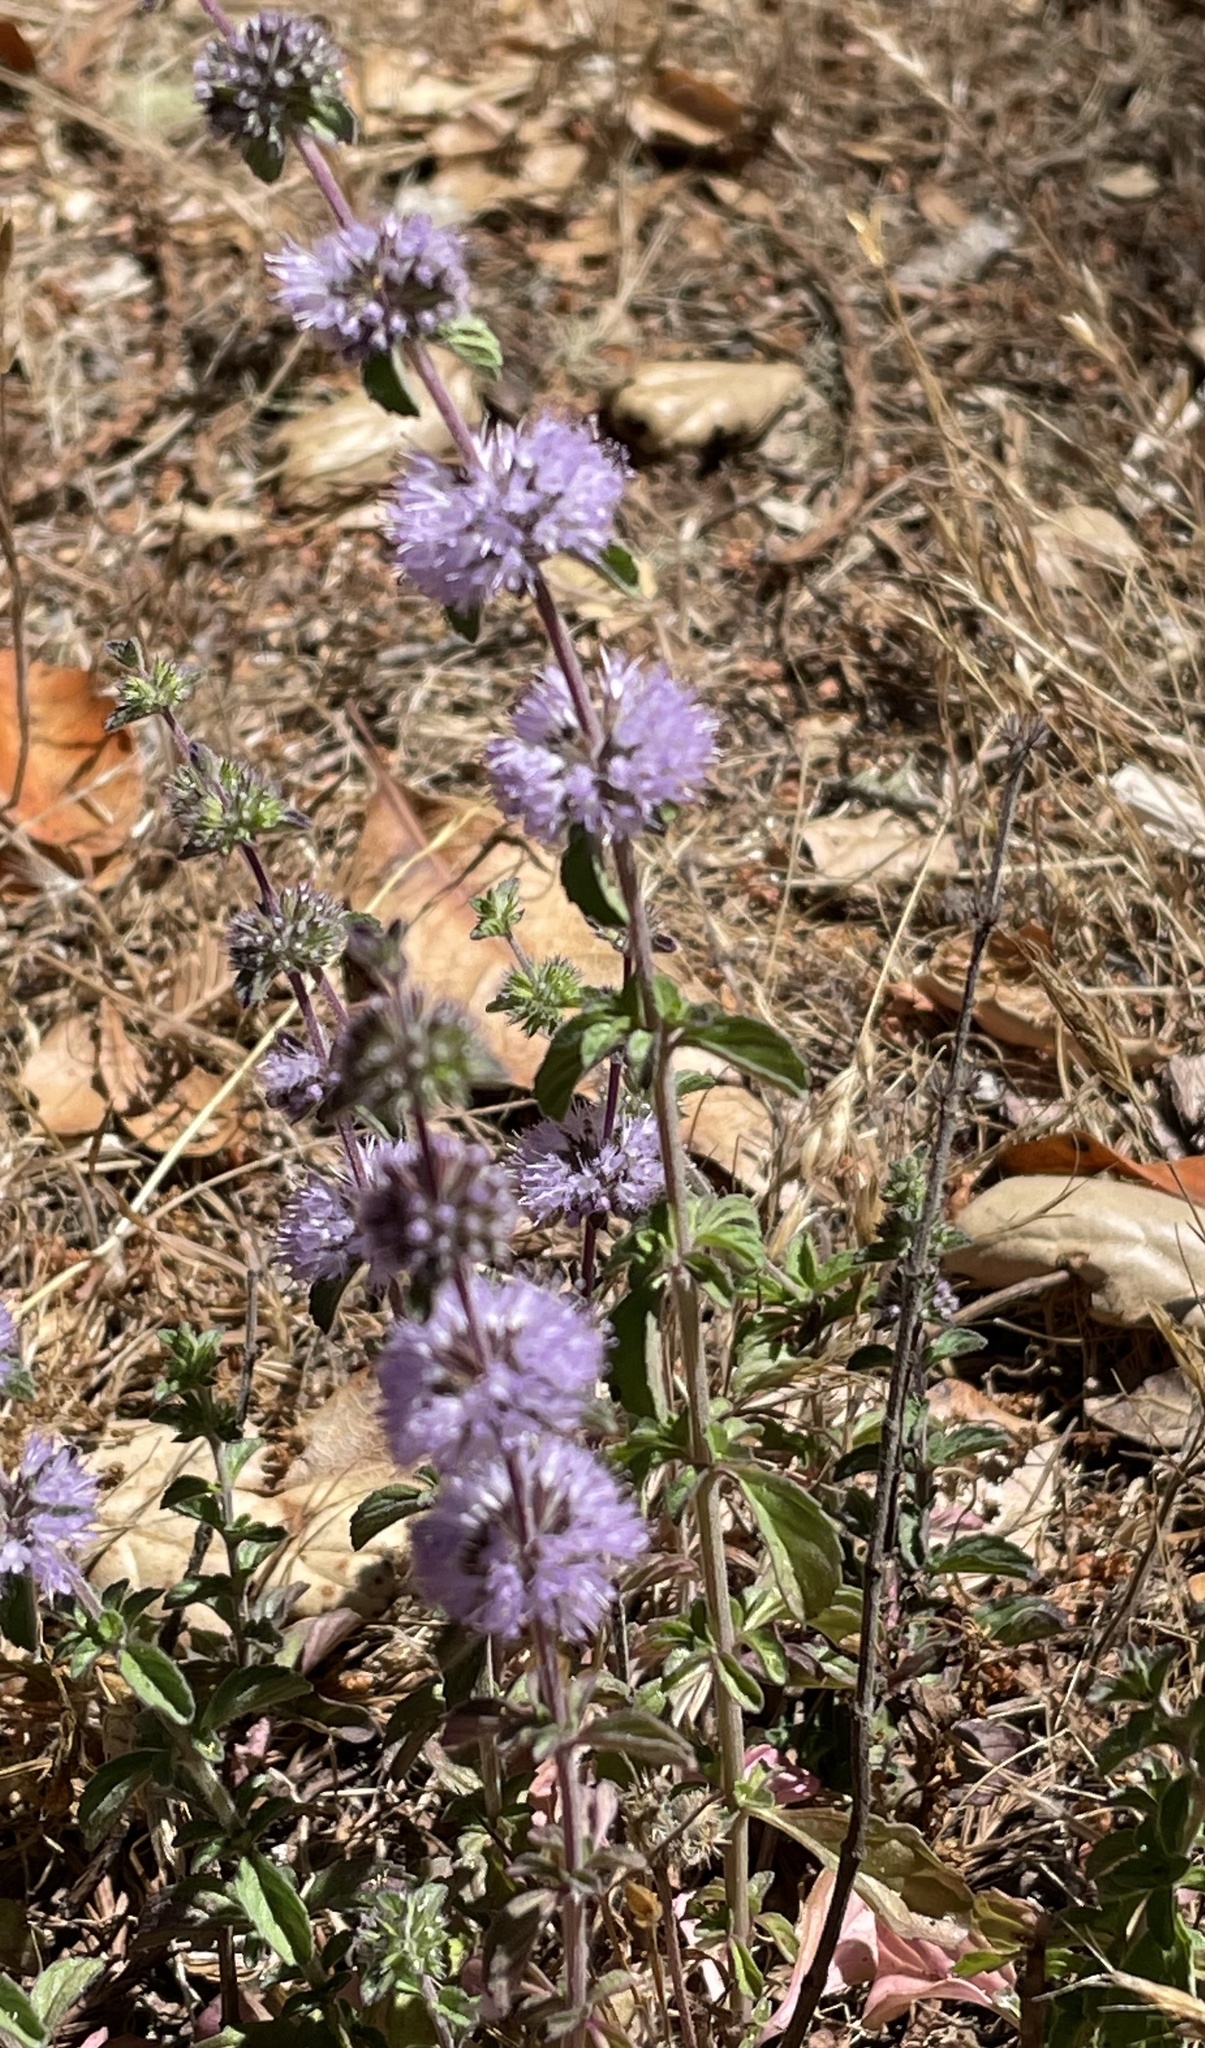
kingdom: Plantae
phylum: Tracheophyta
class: Magnoliopsida
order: Lamiales
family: Lamiaceae
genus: Mentha
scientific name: Mentha pulegium
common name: Pennyroyal
